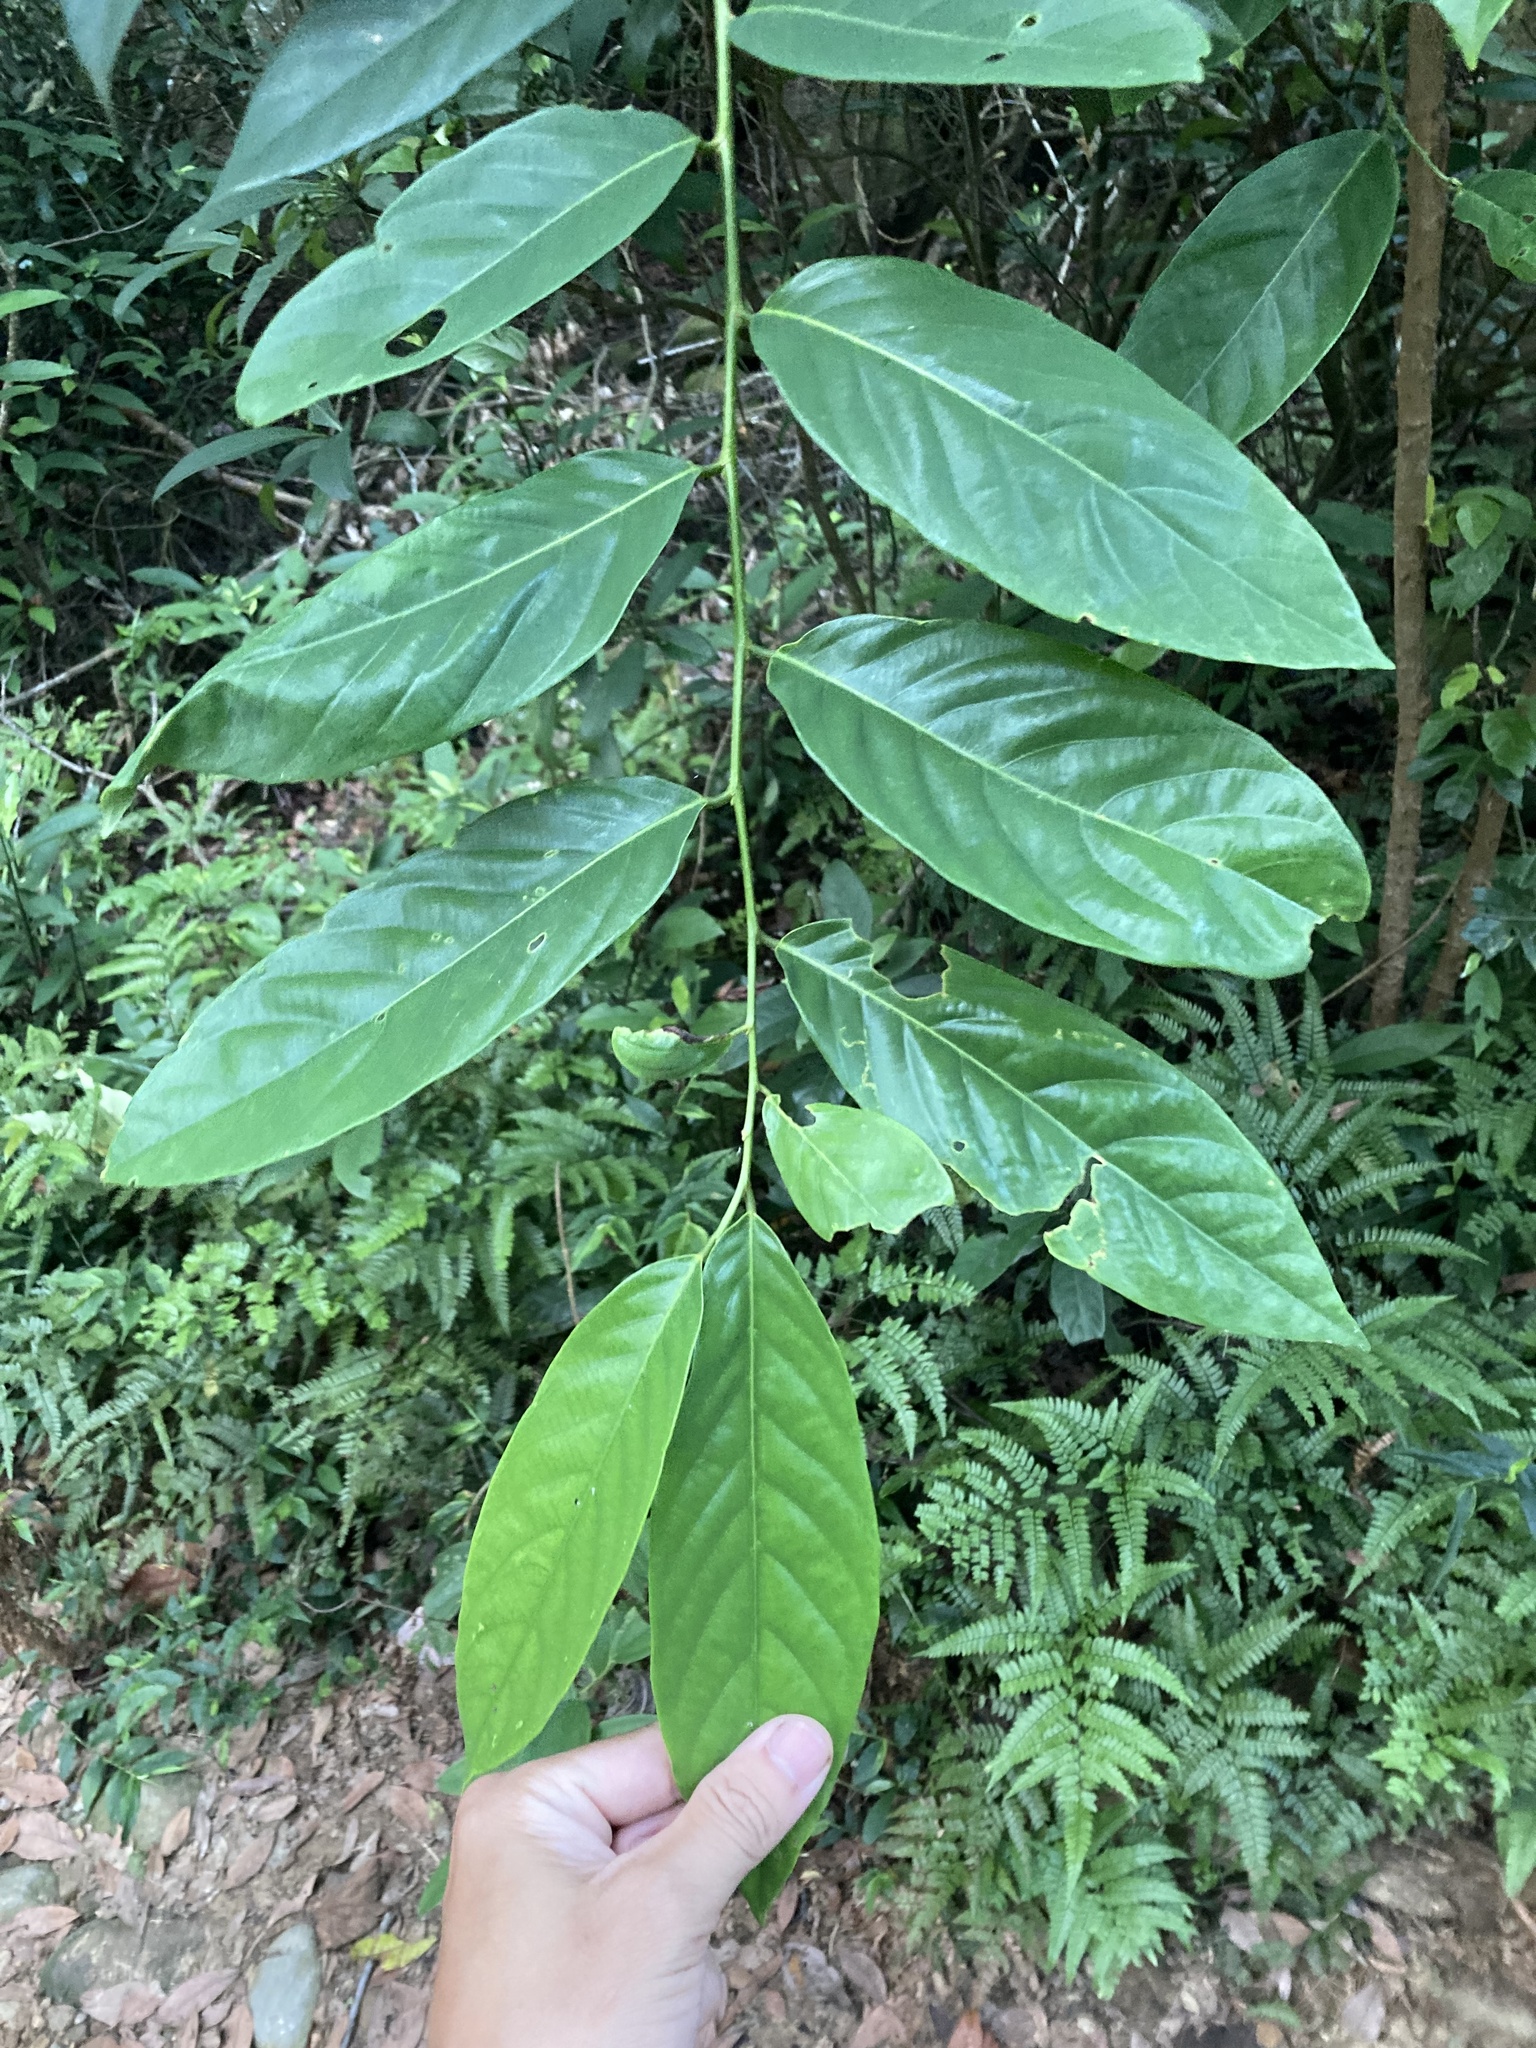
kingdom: Plantae
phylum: Tracheophyta
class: Magnoliopsida
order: Malpighiales
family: Phyllanthaceae
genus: Bridelia
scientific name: Bridelia balansae
